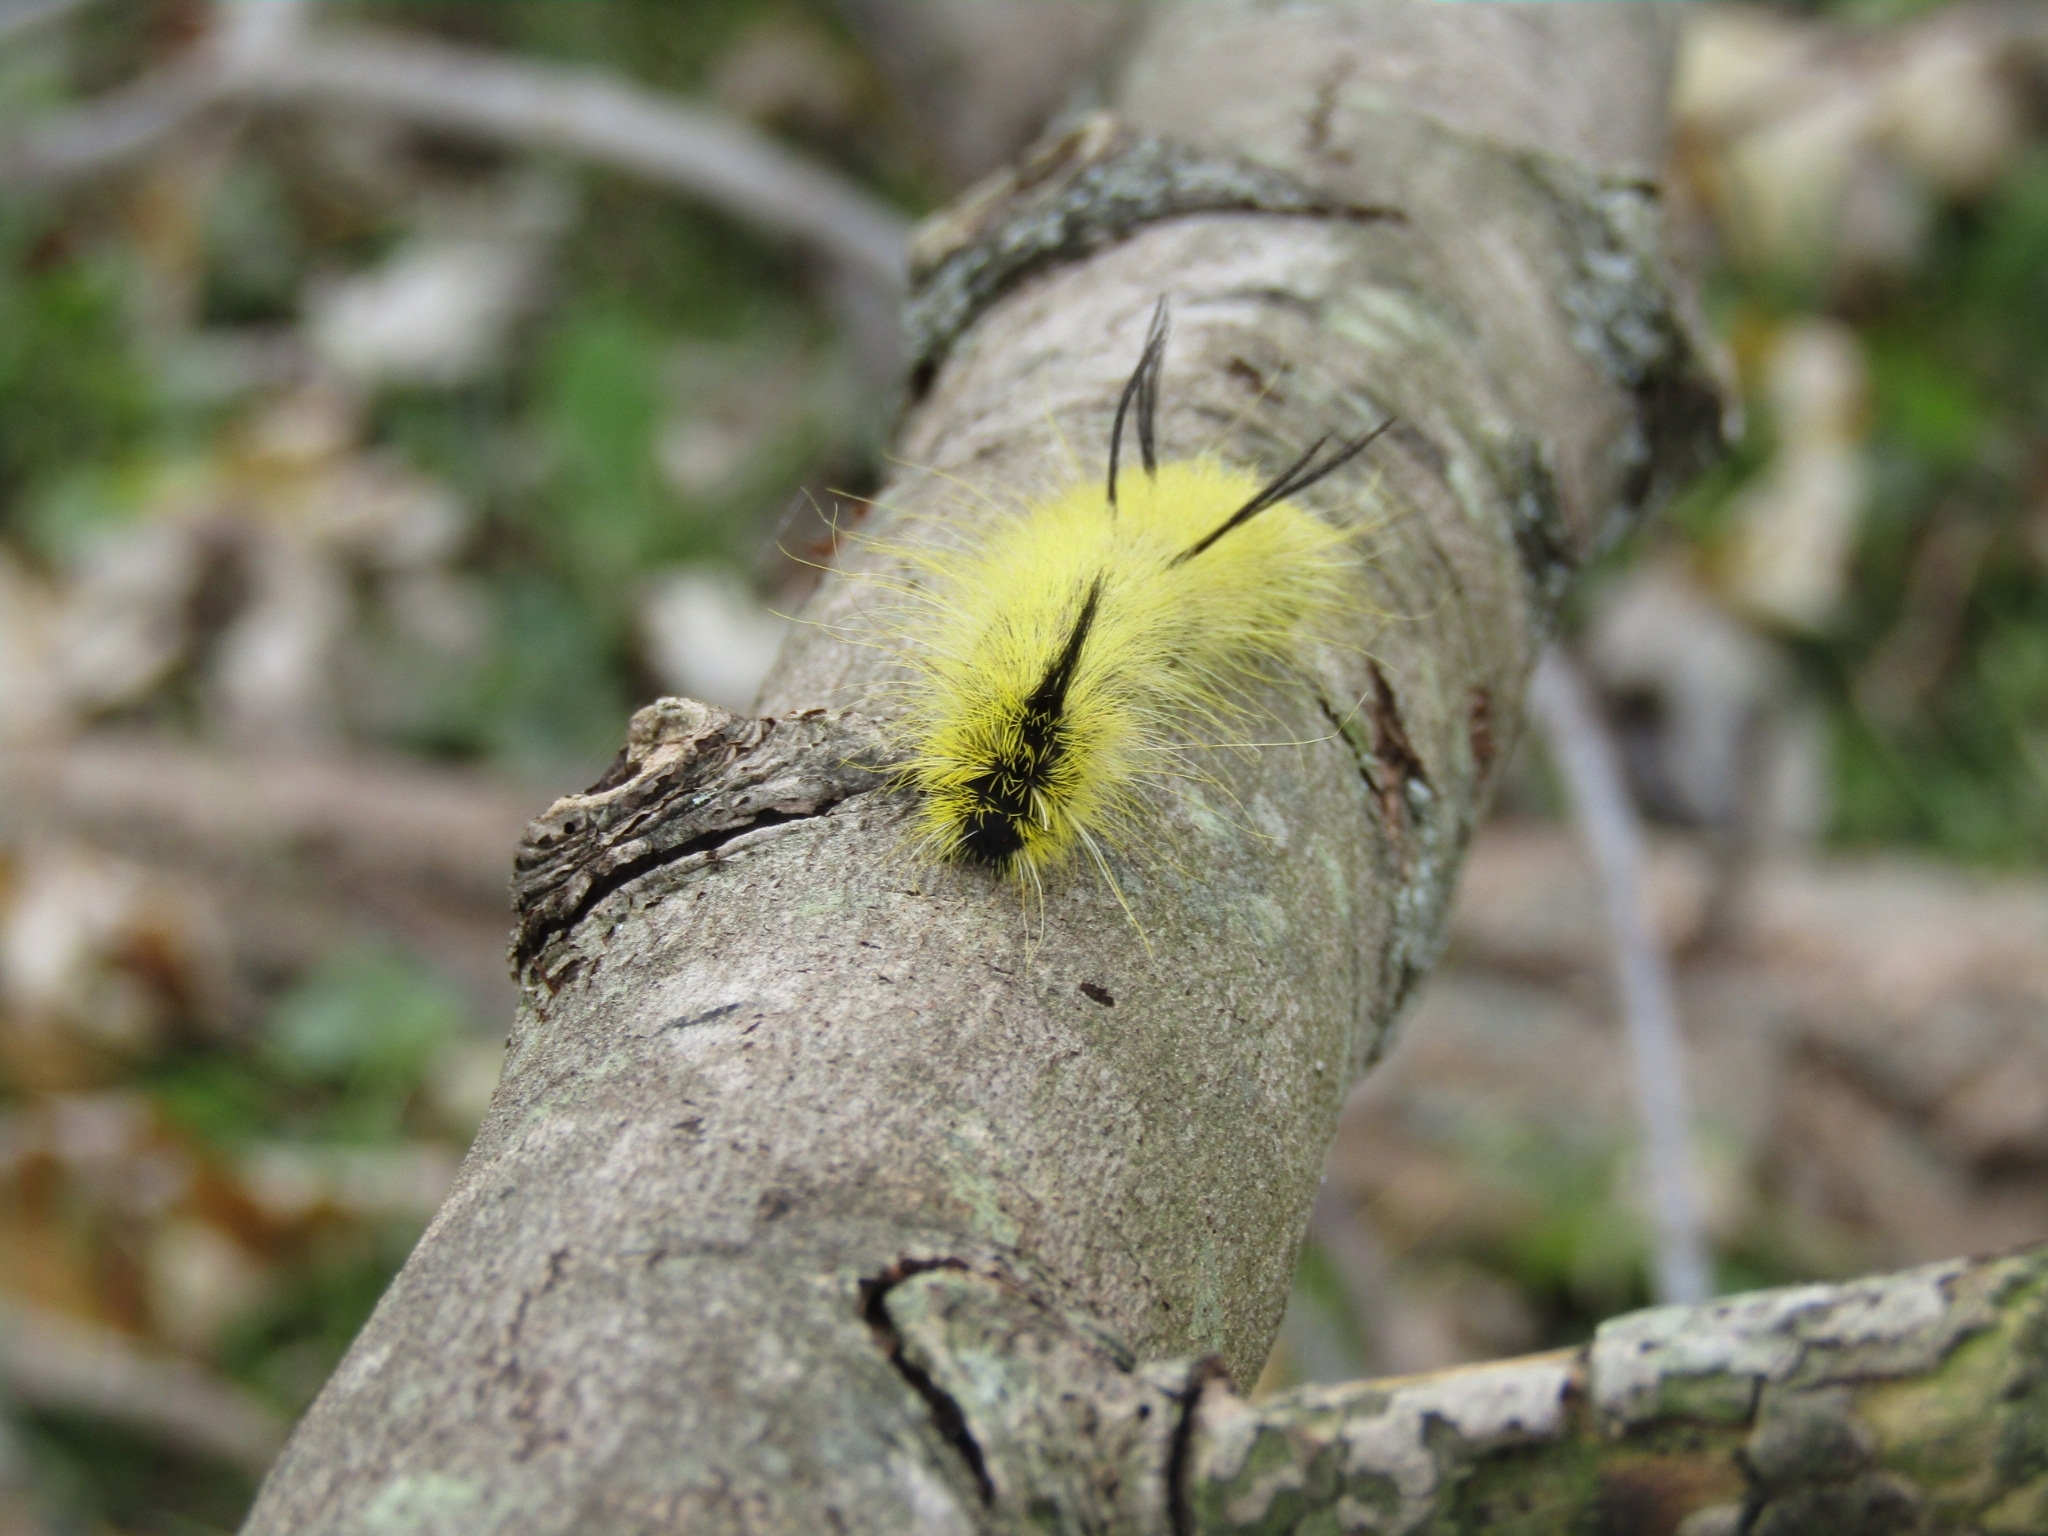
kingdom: Animalia
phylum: Arthropoda
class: Insecta
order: Lepidoptera
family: Noctuidae
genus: Acronicta
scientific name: Acronicta americana
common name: American dagger
